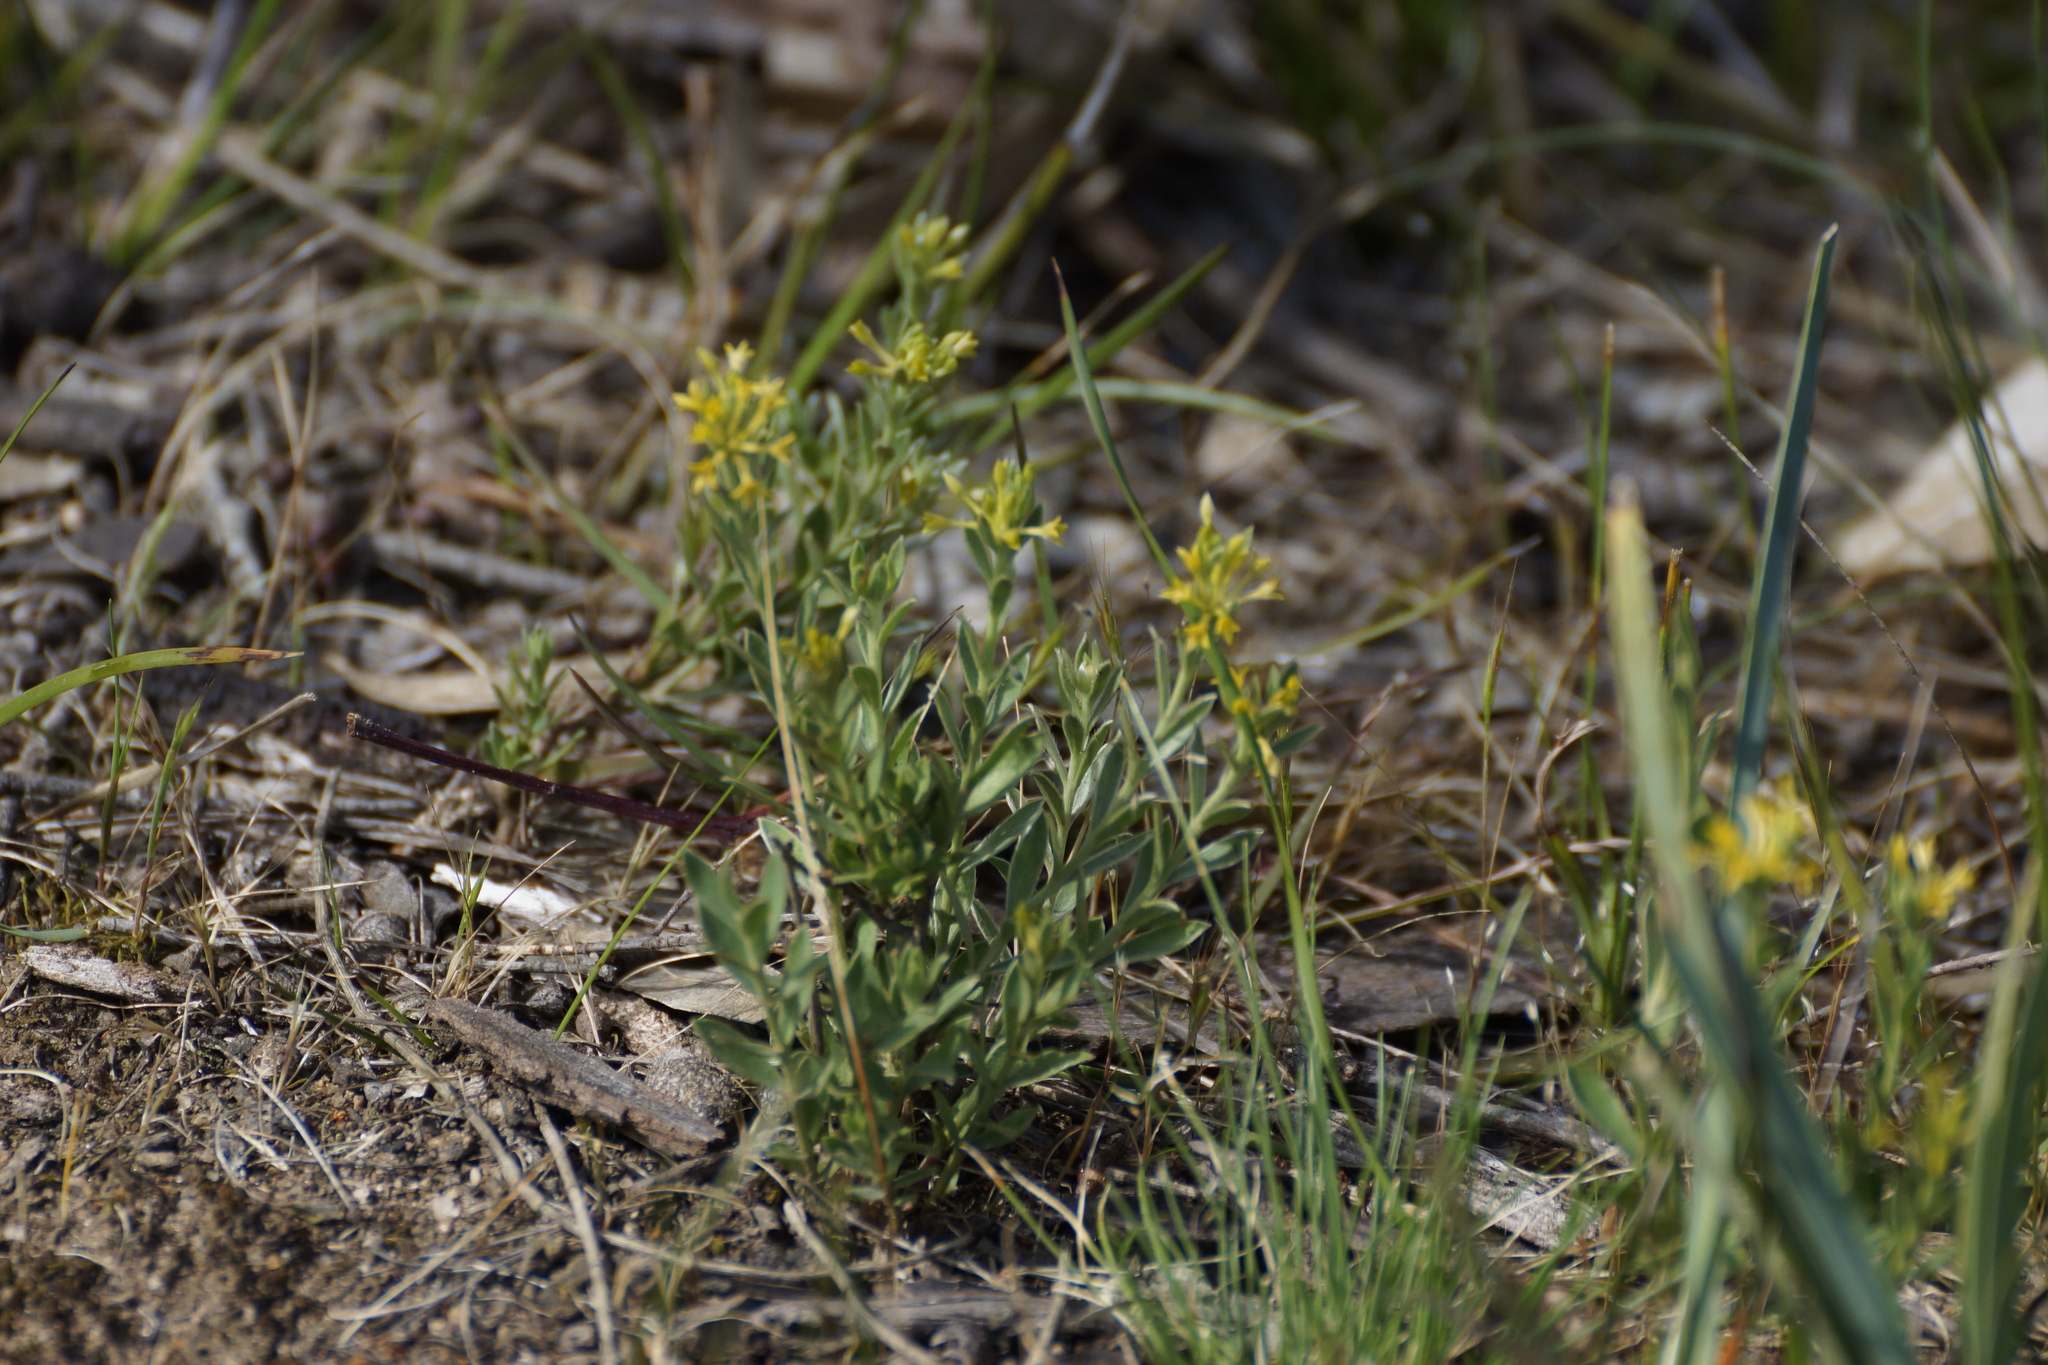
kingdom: Plantae
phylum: Tracheophyta
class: Magnoliopsida
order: Malvales
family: Thymelaeaceae
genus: Pimelea
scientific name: Pimelea curviflora
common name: Curved riceflower
